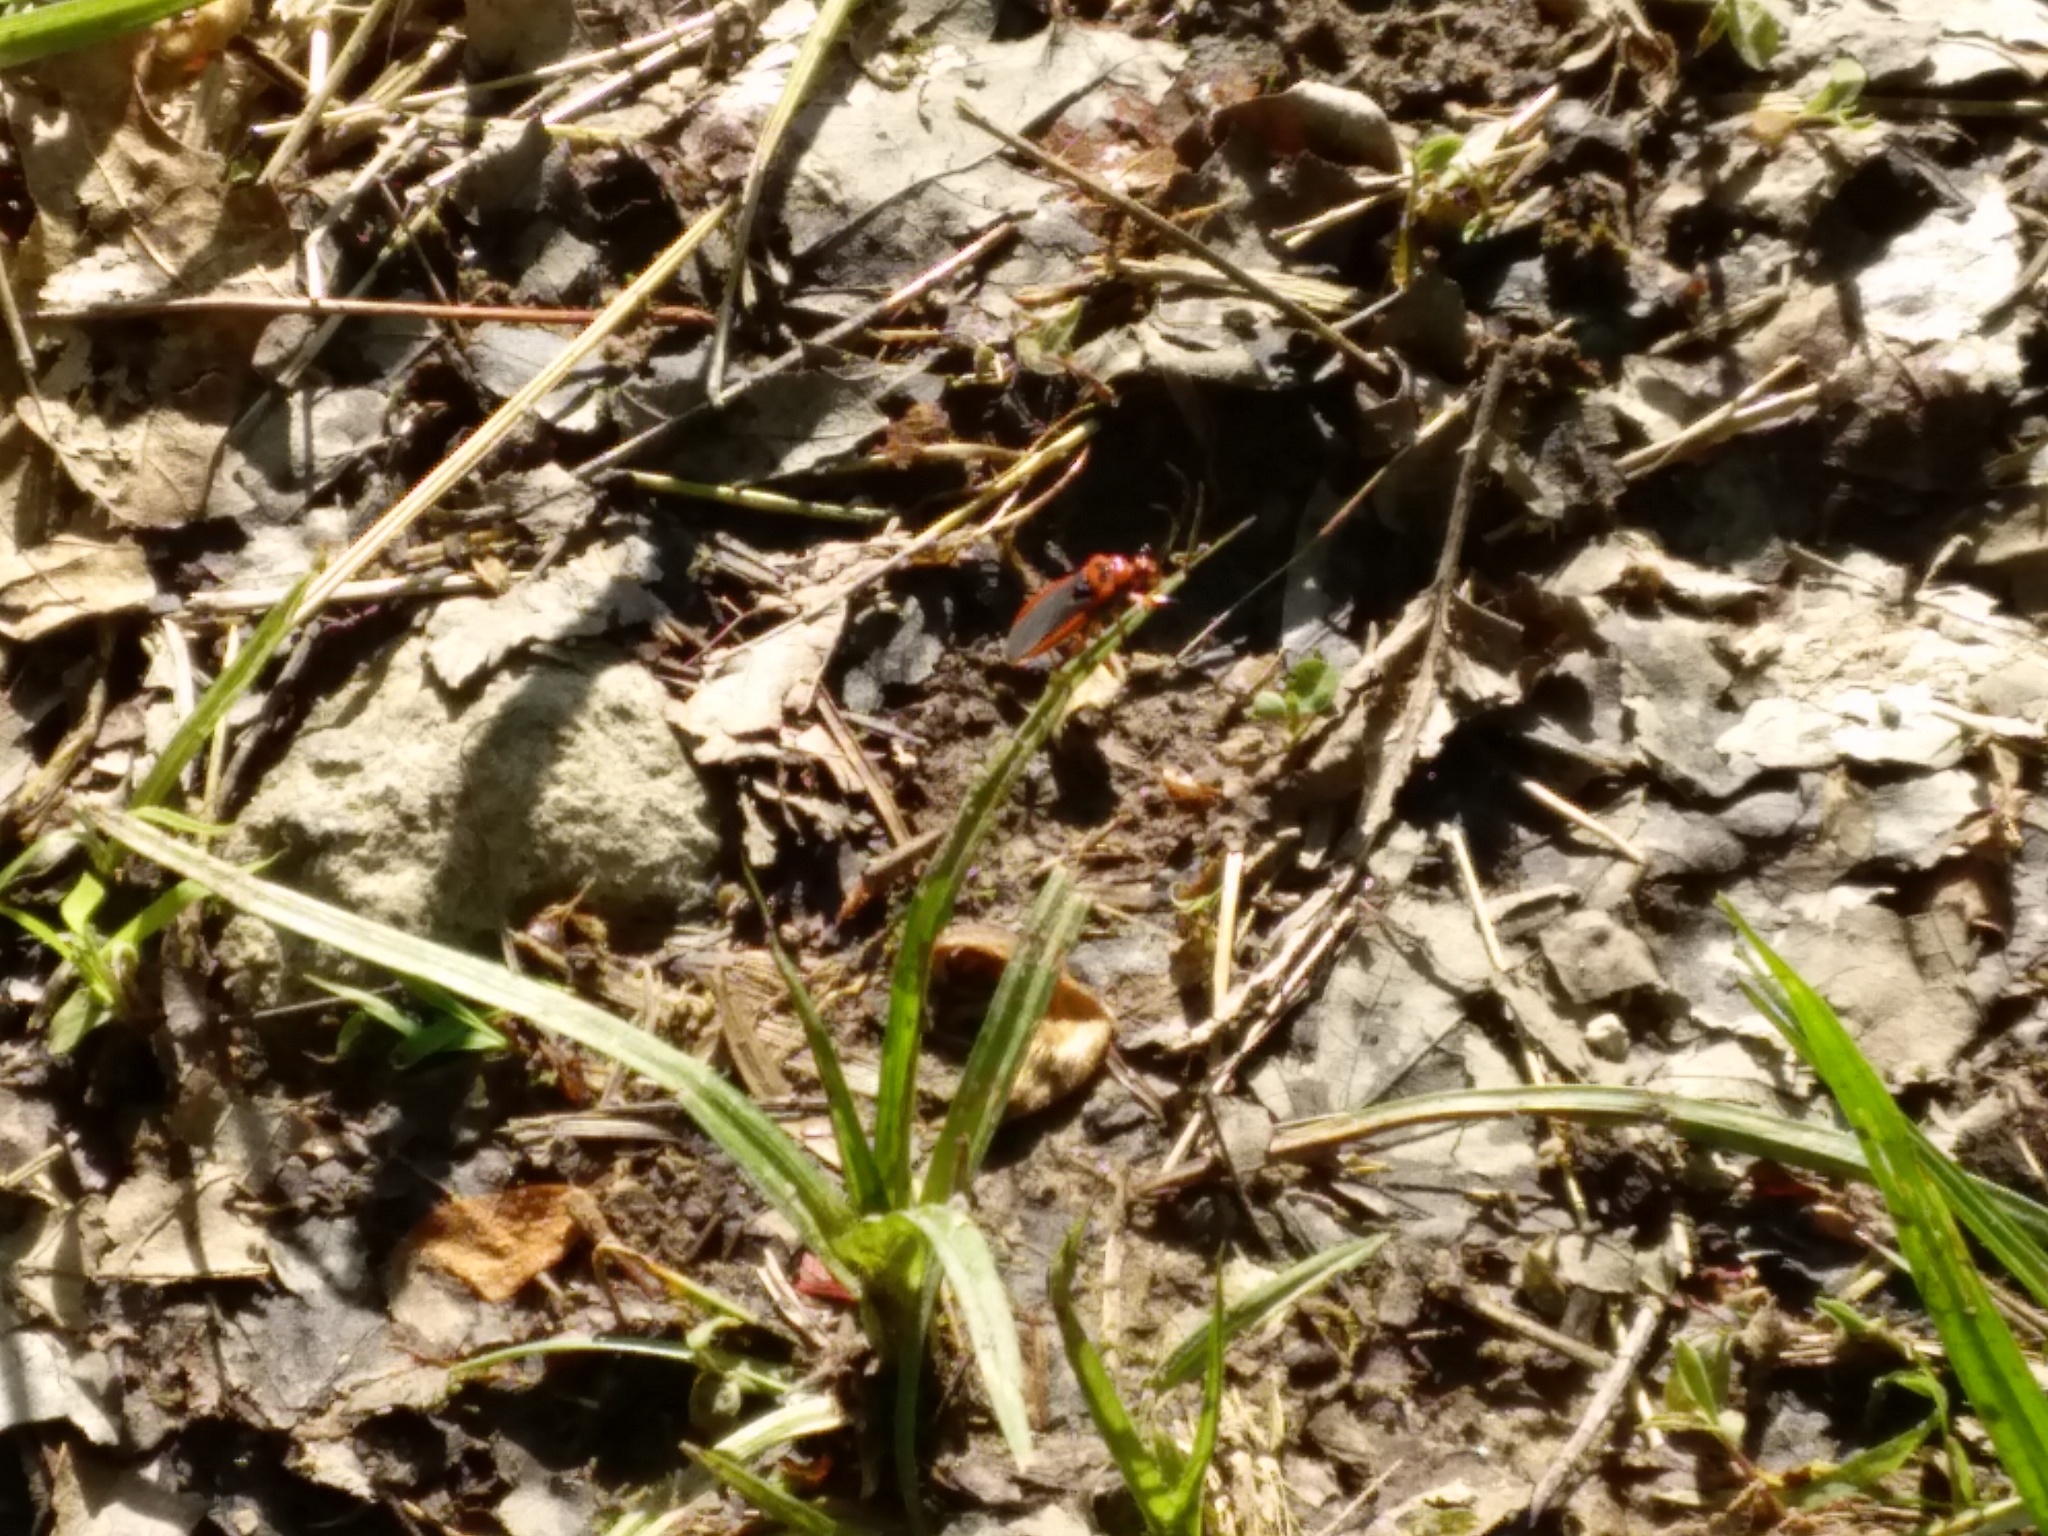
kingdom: Animalia
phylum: Arthropoda
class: Insecta
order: Hemiptera
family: Reduviidae
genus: Rhiginia
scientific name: Rhiginia cruciata
